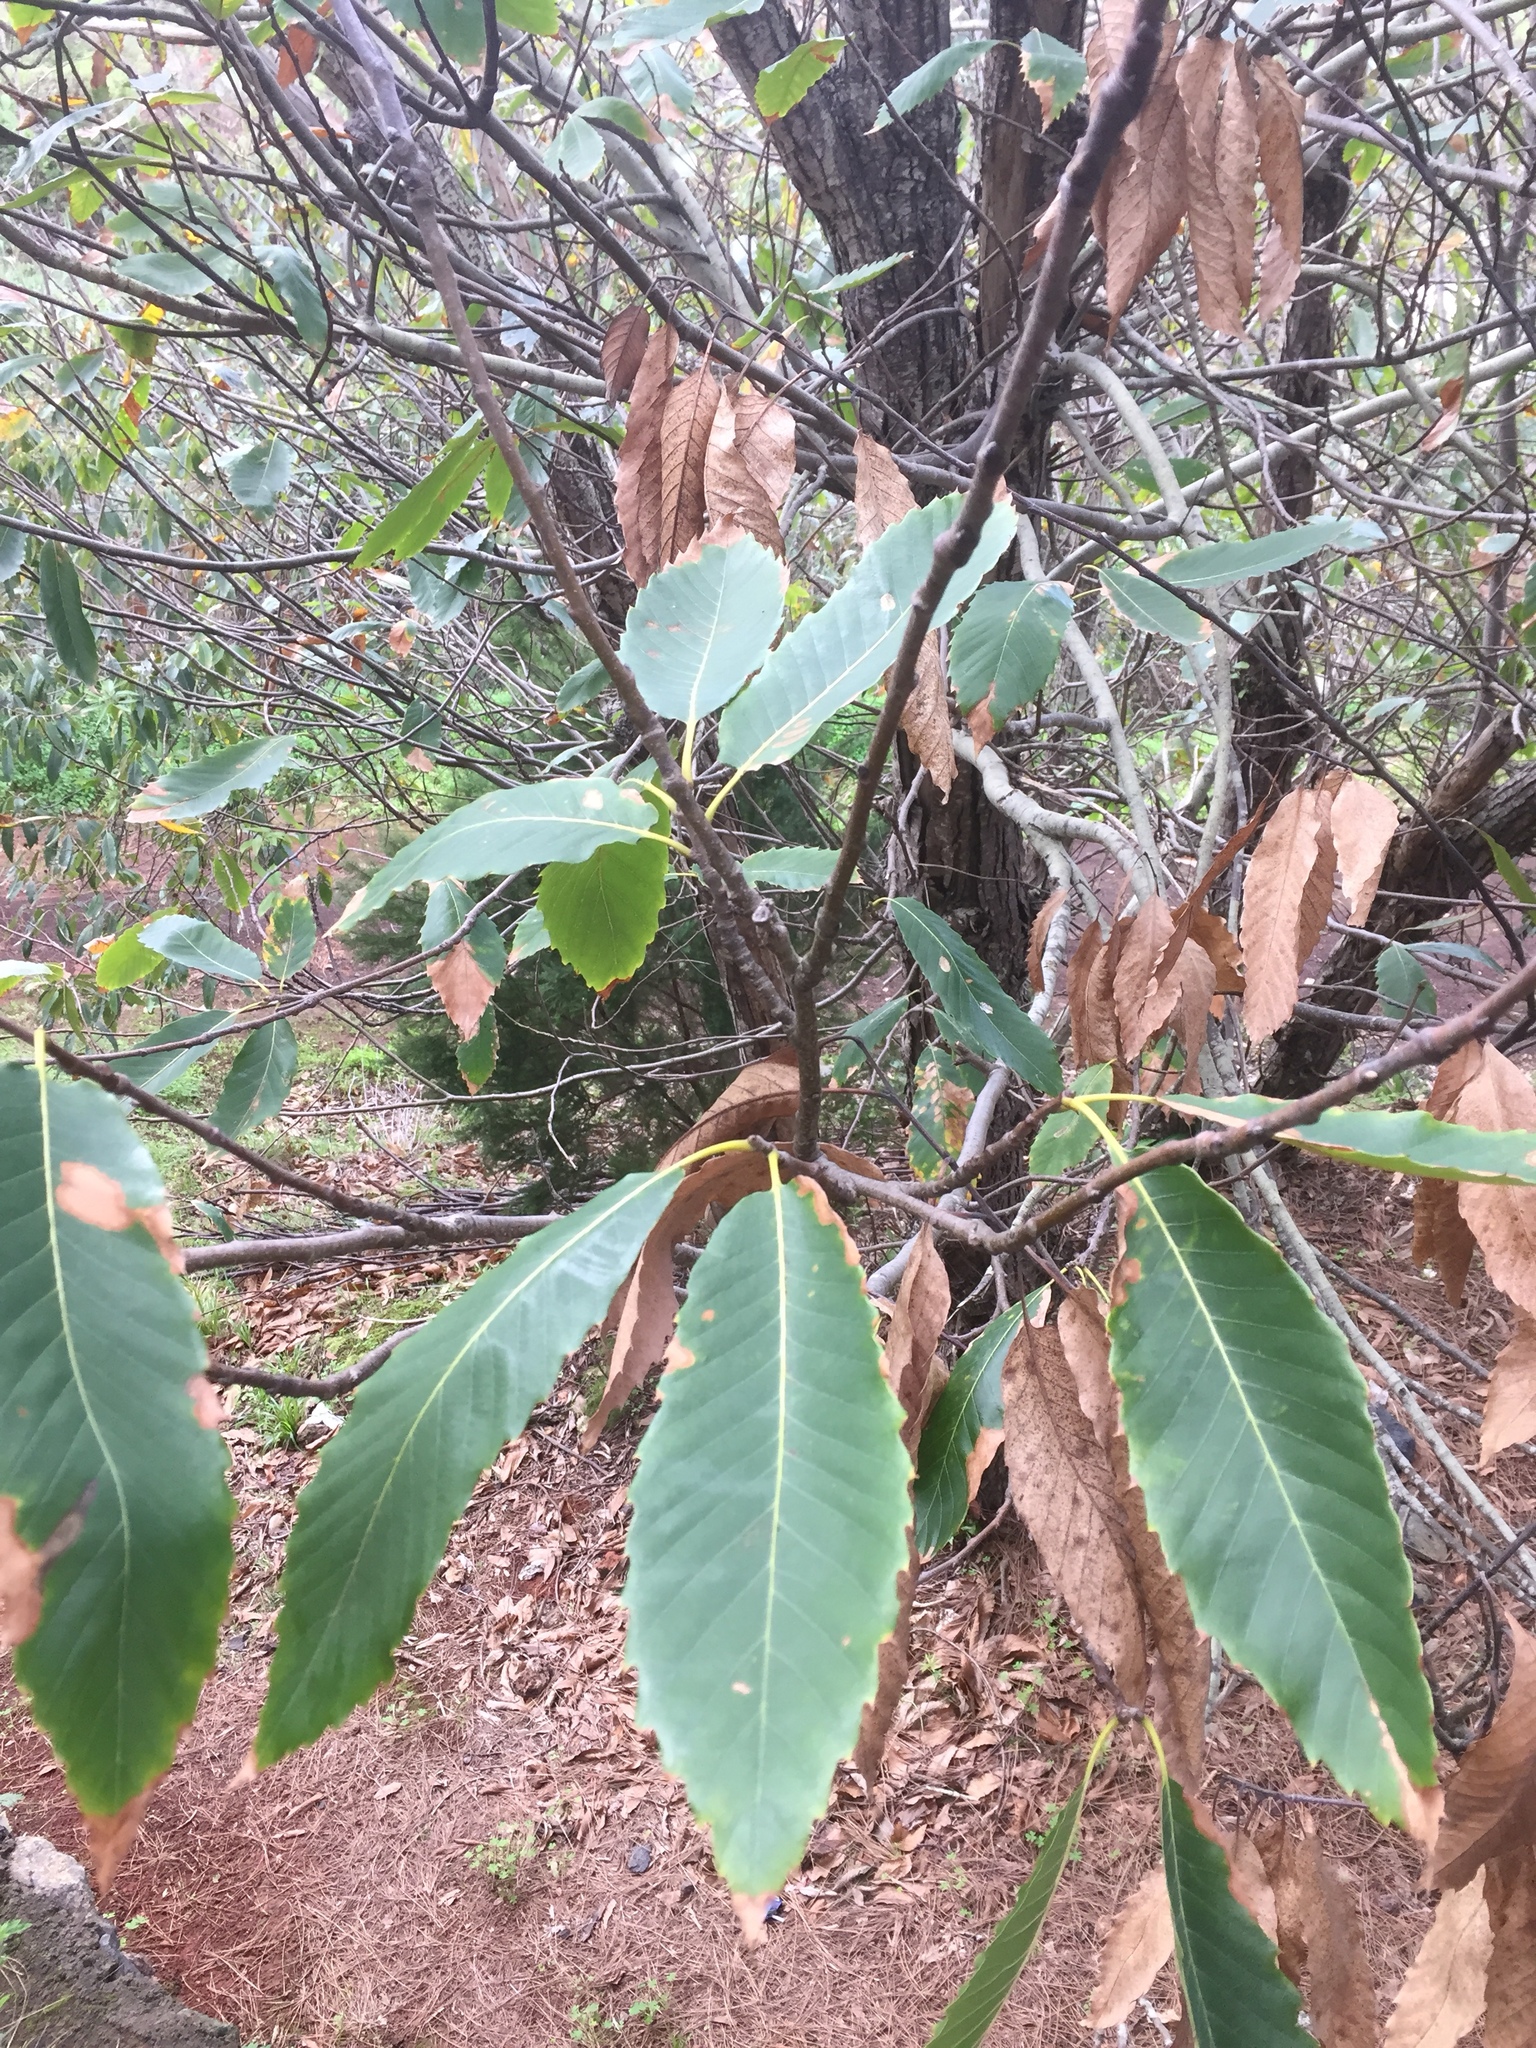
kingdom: Plantae
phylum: Tracheophyta
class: Magnoliopsida
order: Fagales
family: Fagaceae
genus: Castanea
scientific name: Castanea sativa
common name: Sweet chestnut
